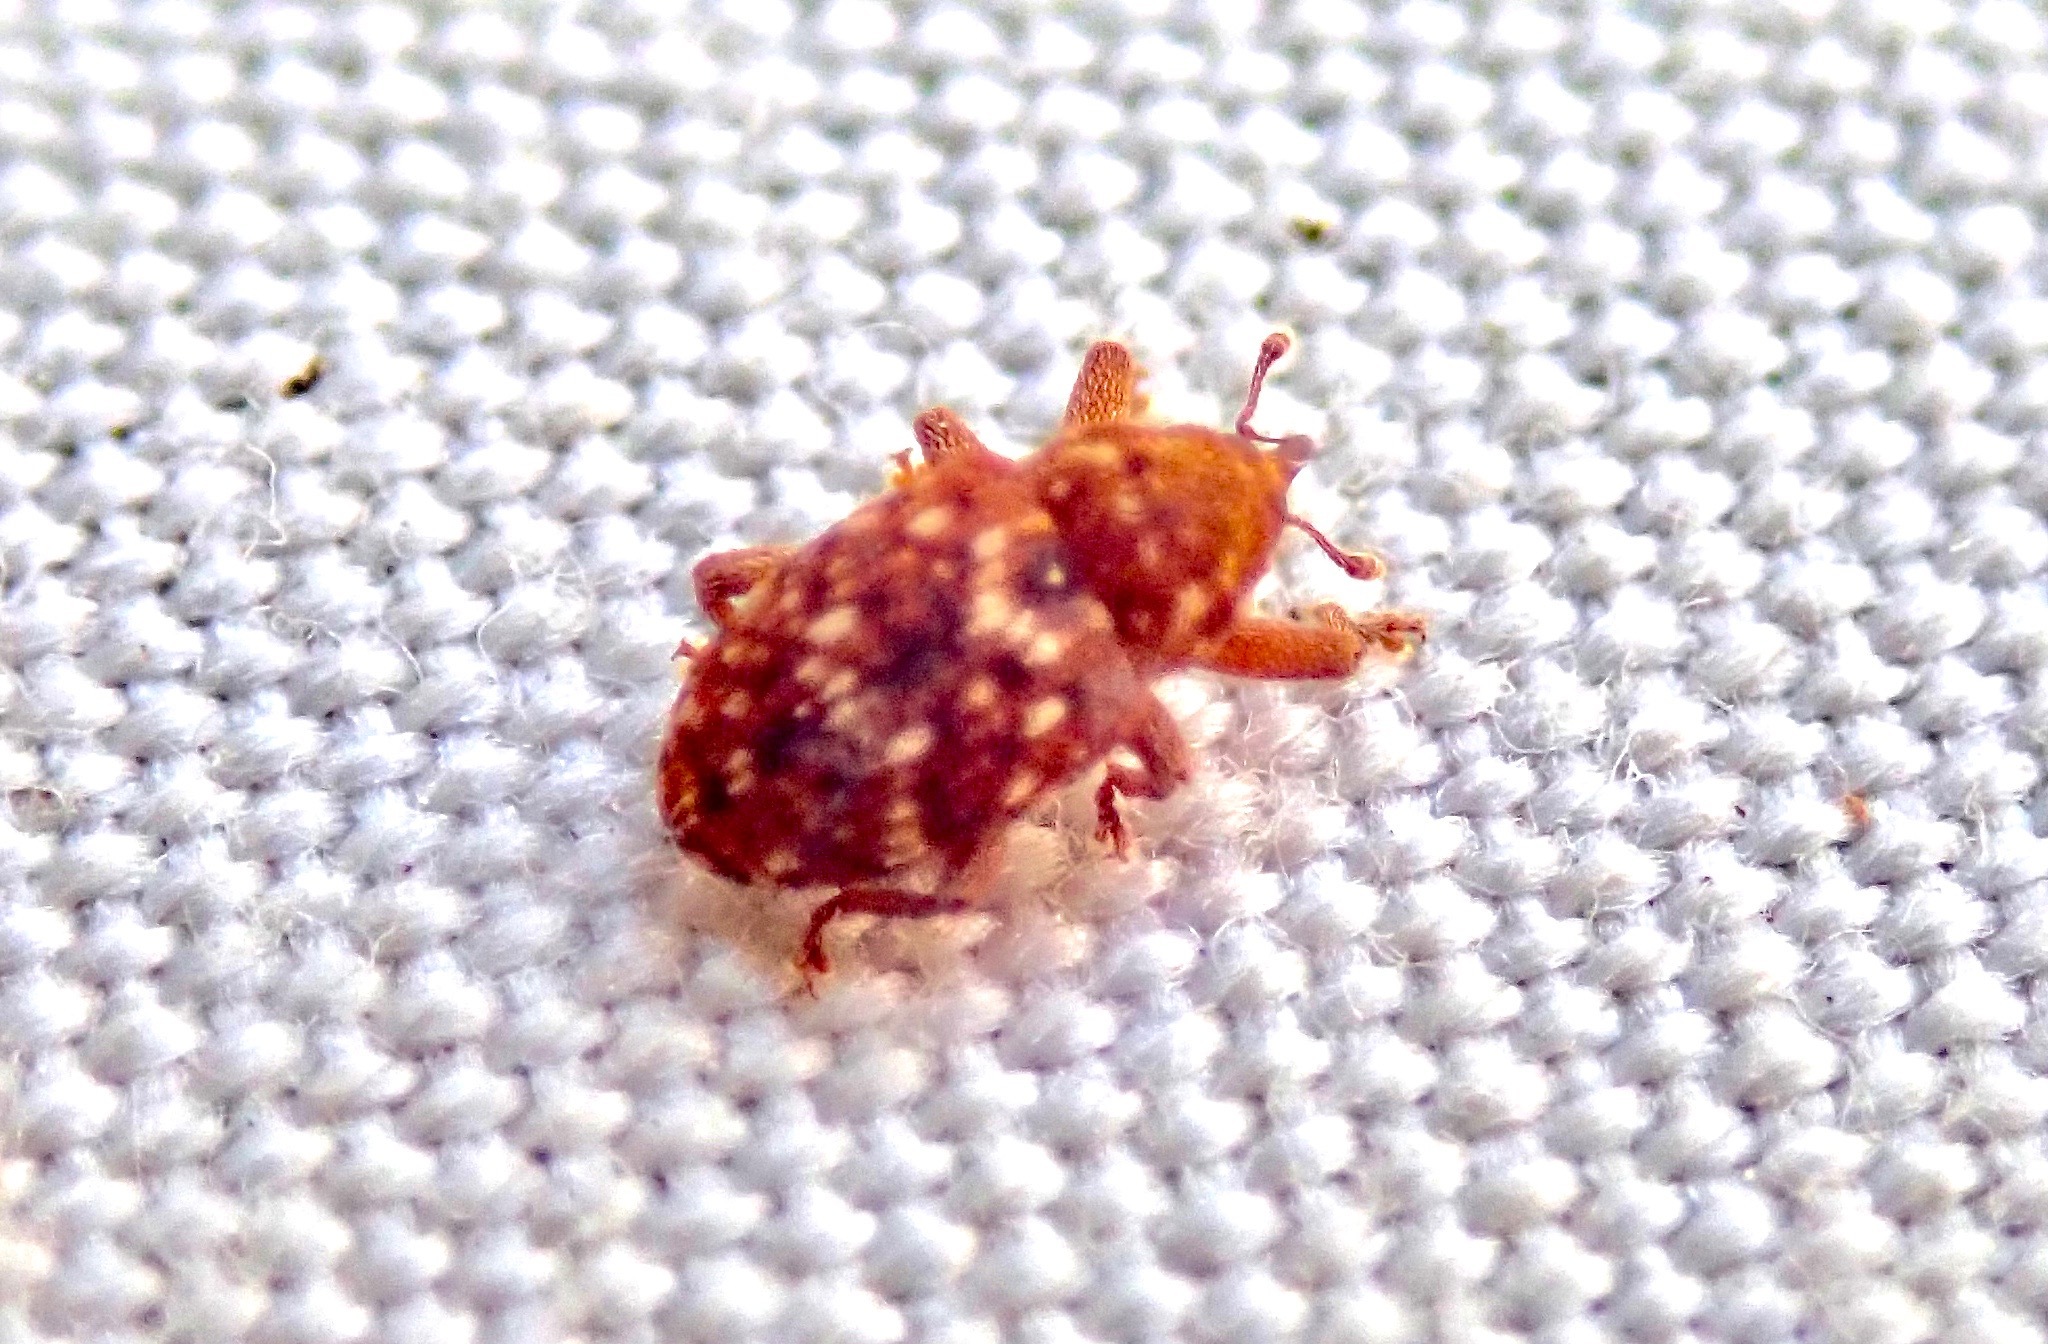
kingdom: Animalia
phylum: Arthropoda
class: Insecta
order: Coleoptera
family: Curculionidae
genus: Storeus
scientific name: Storeus albosignatus
